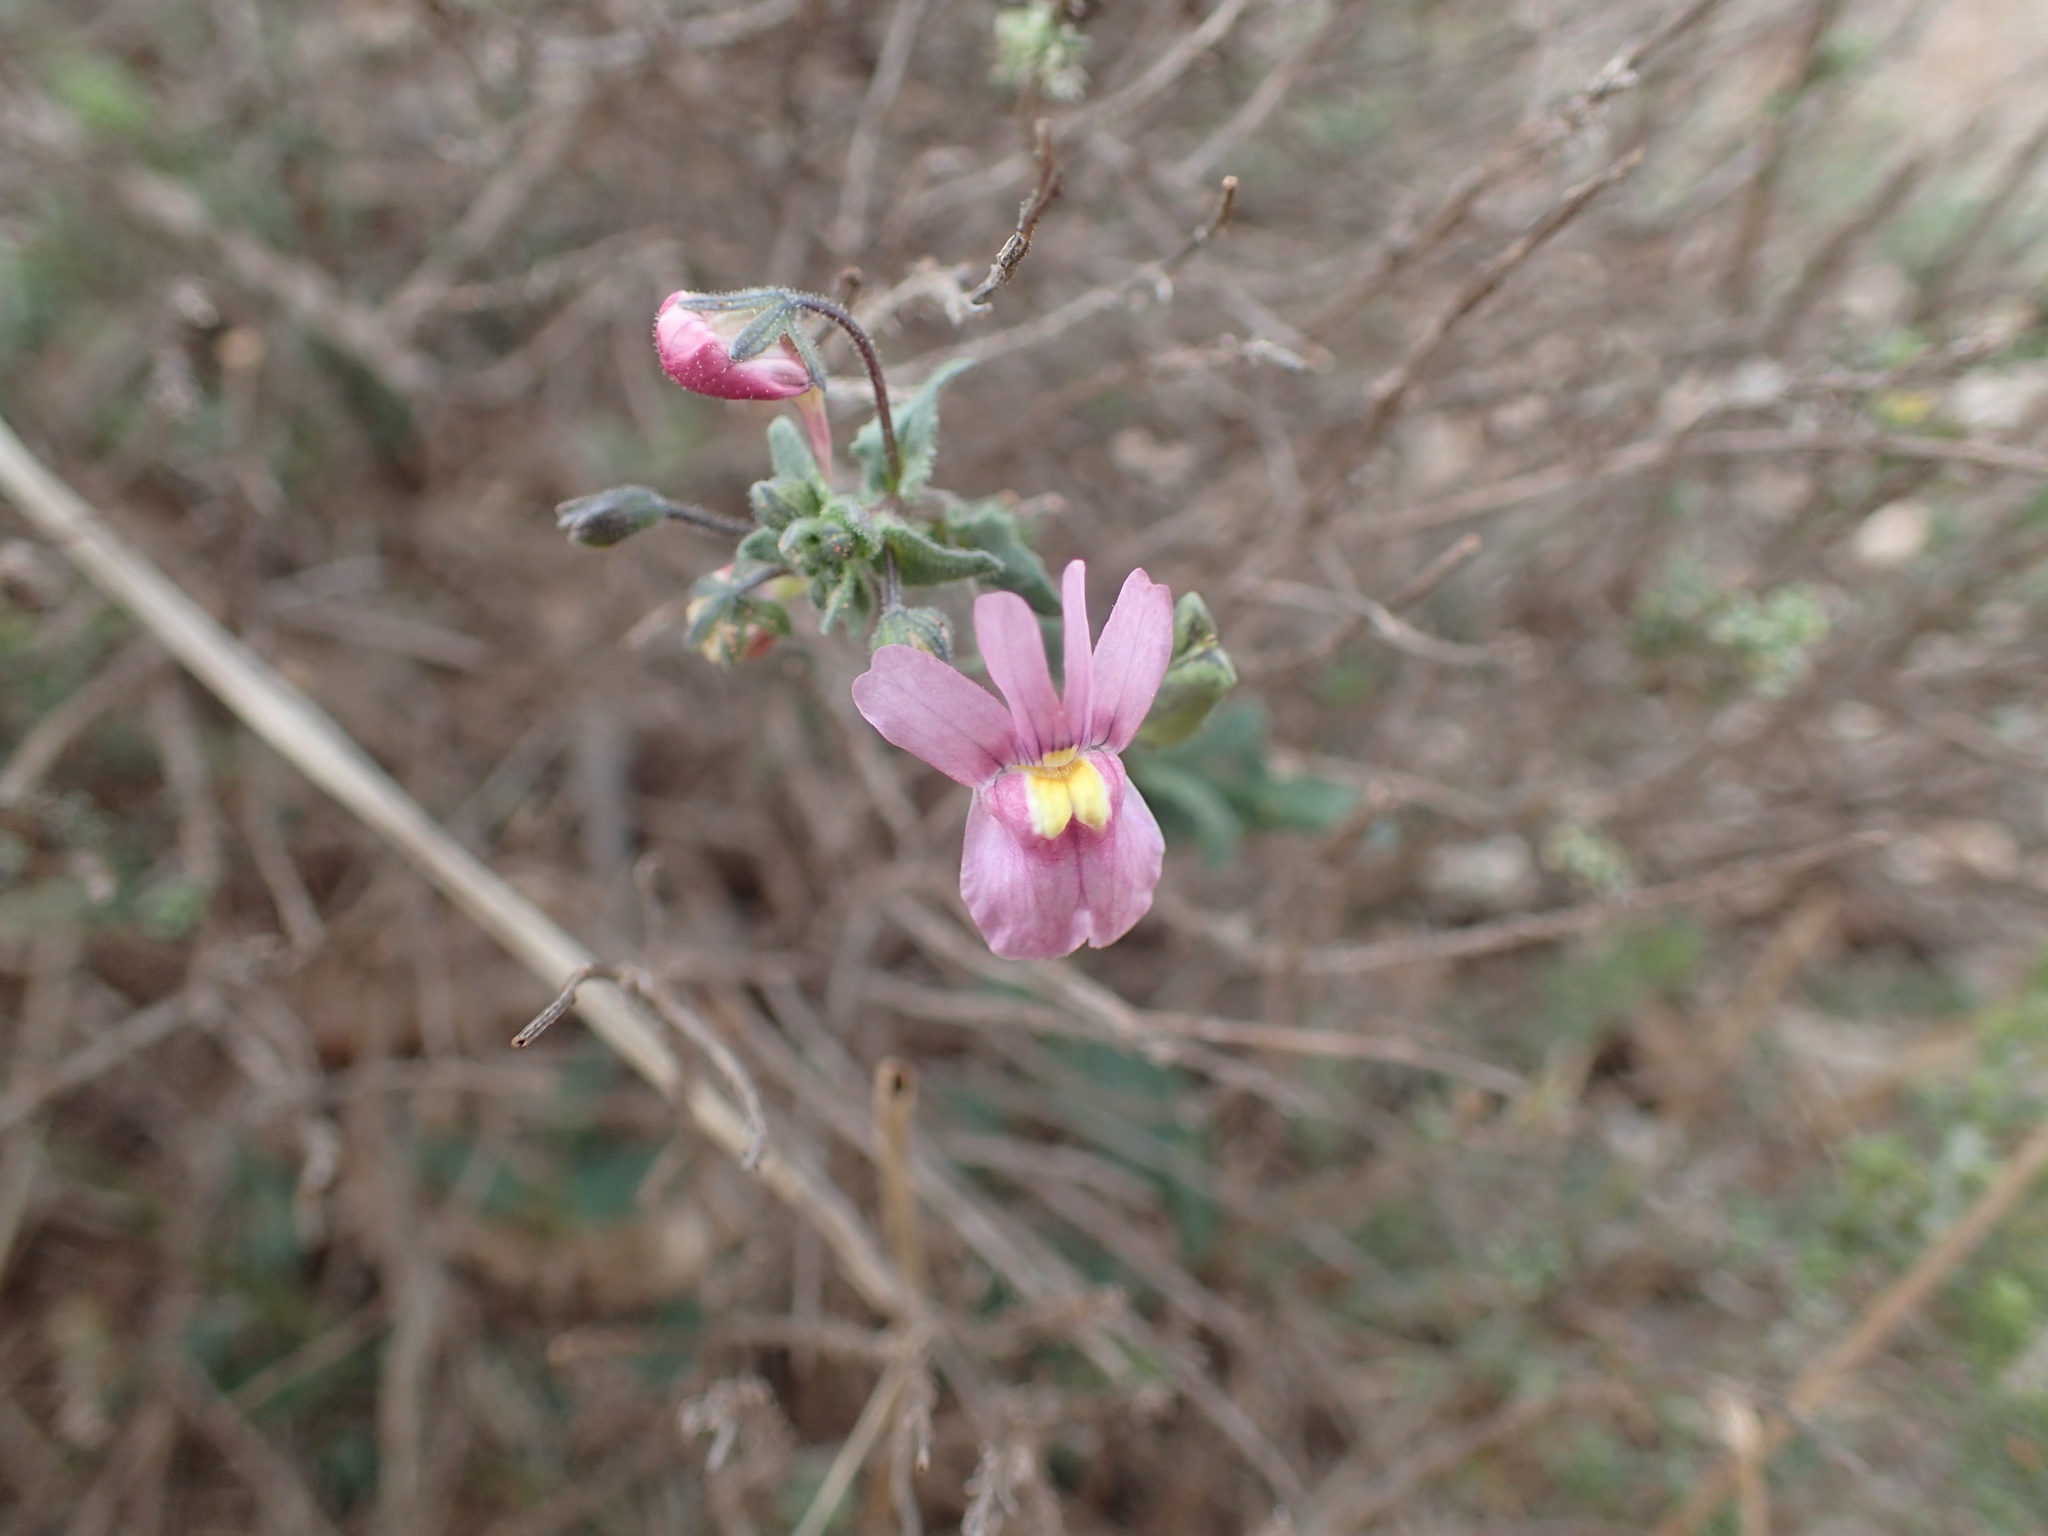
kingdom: Plantae
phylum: Tracheophyta
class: Magnoliopsida
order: Lamiales
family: Scrophulariaceae
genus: Nemesia
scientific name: Nemesia hanoverica
